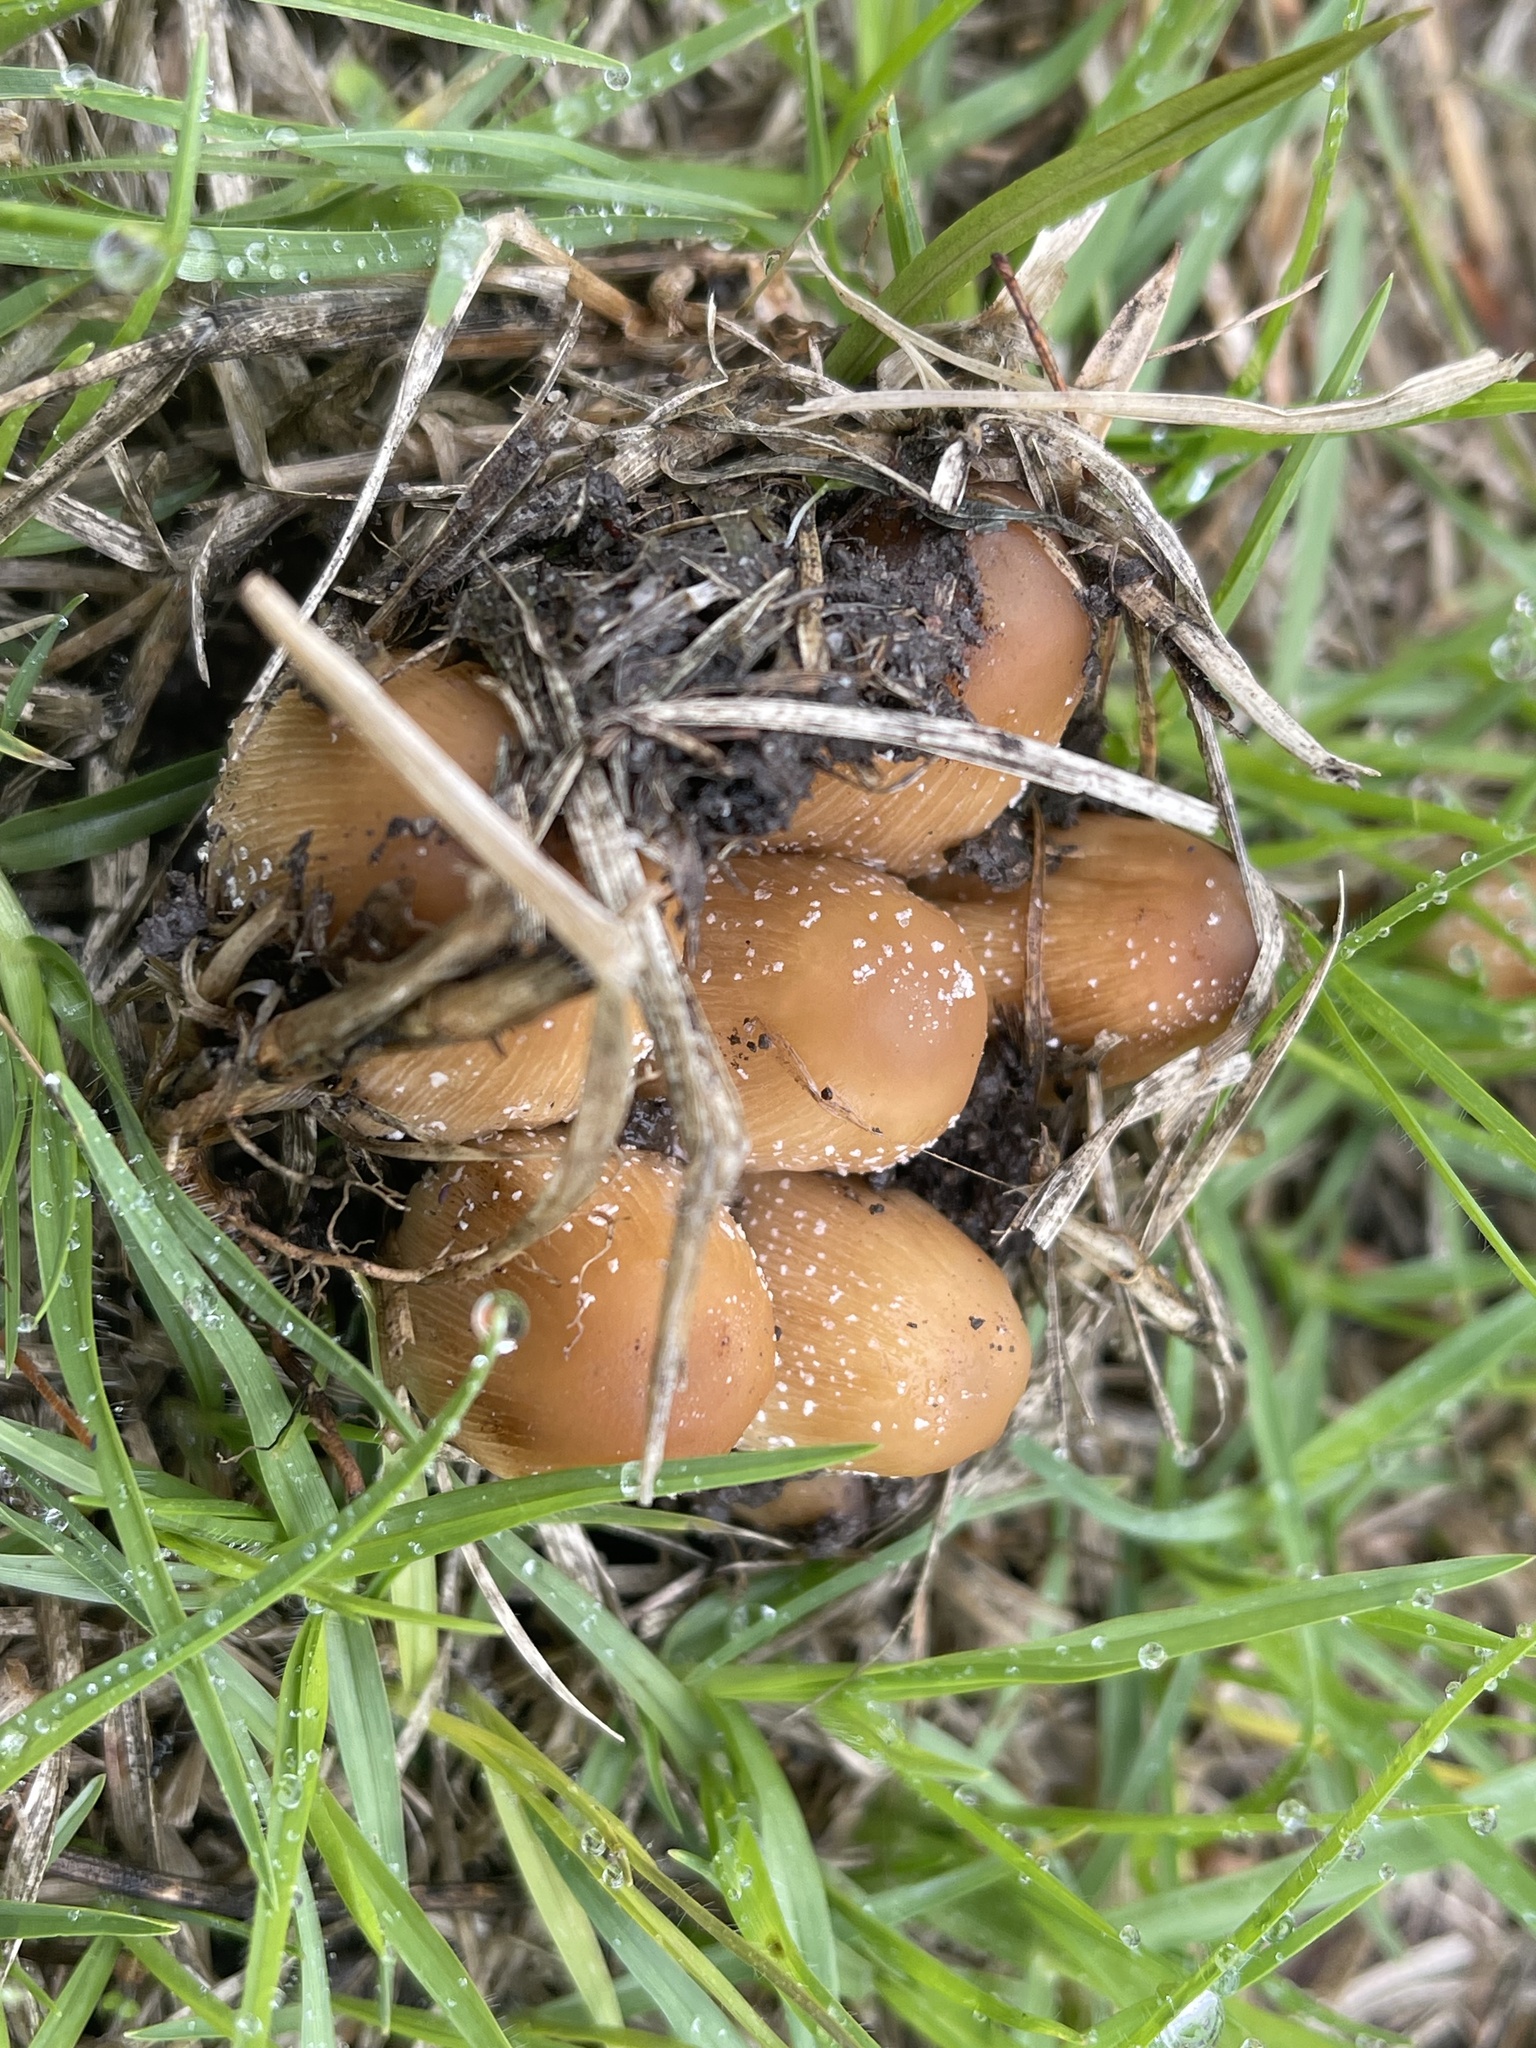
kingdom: Fungi
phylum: Basidiomycota
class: Agaricomycetes
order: Agaricales
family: Psathyrellaceae
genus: Coprinellus
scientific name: Coprinellus micaceus
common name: Glistening ink-cap
